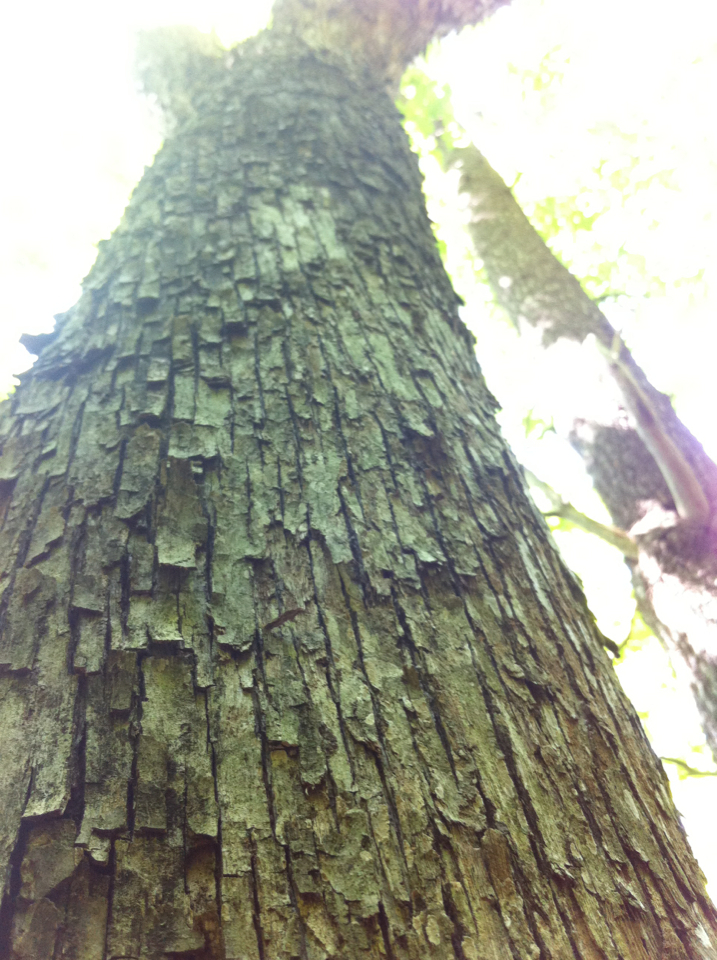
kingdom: Plantae
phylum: Tracheophyta
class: Magnoliopsida
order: Fagales
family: Betulaceae
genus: Ostrya
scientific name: Ostrya virginiana
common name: Ironwood
